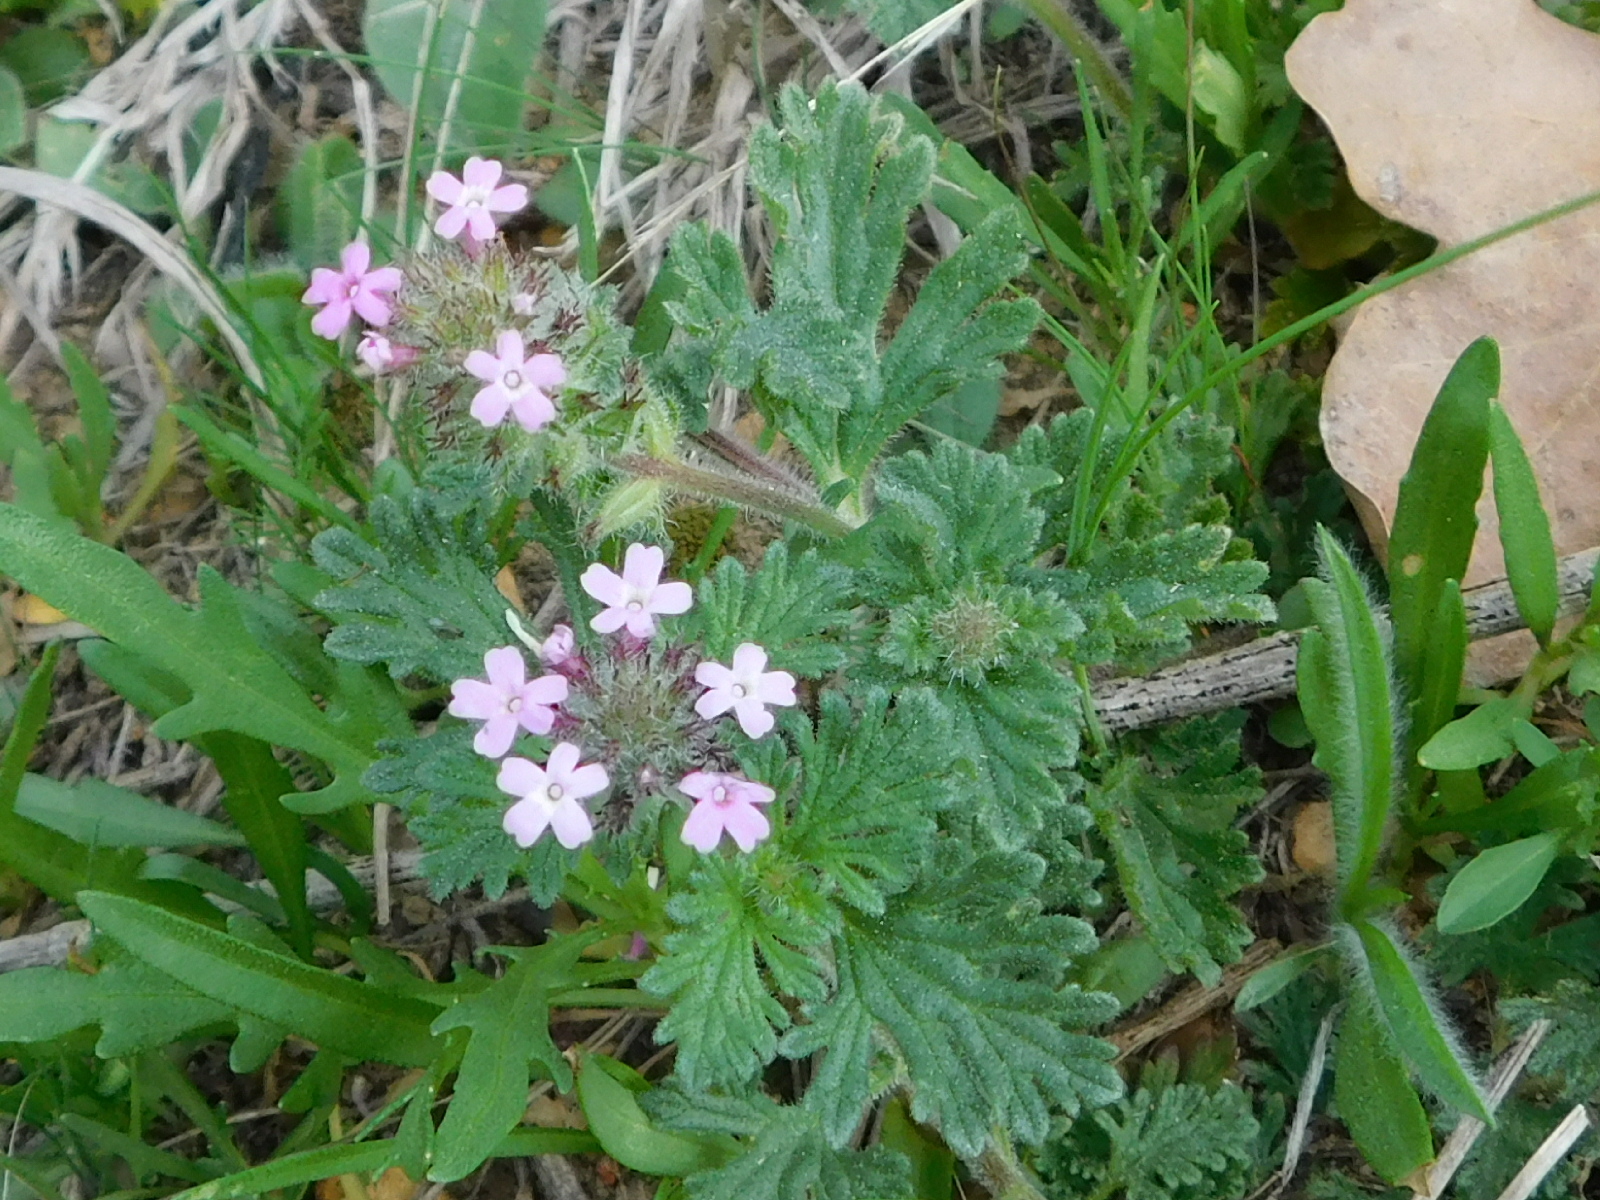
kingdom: Plantae
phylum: Tracheophyta
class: Magnoliopsida
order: Lamiales
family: Verbenaceae
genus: Verbena
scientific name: Verbena pumila
